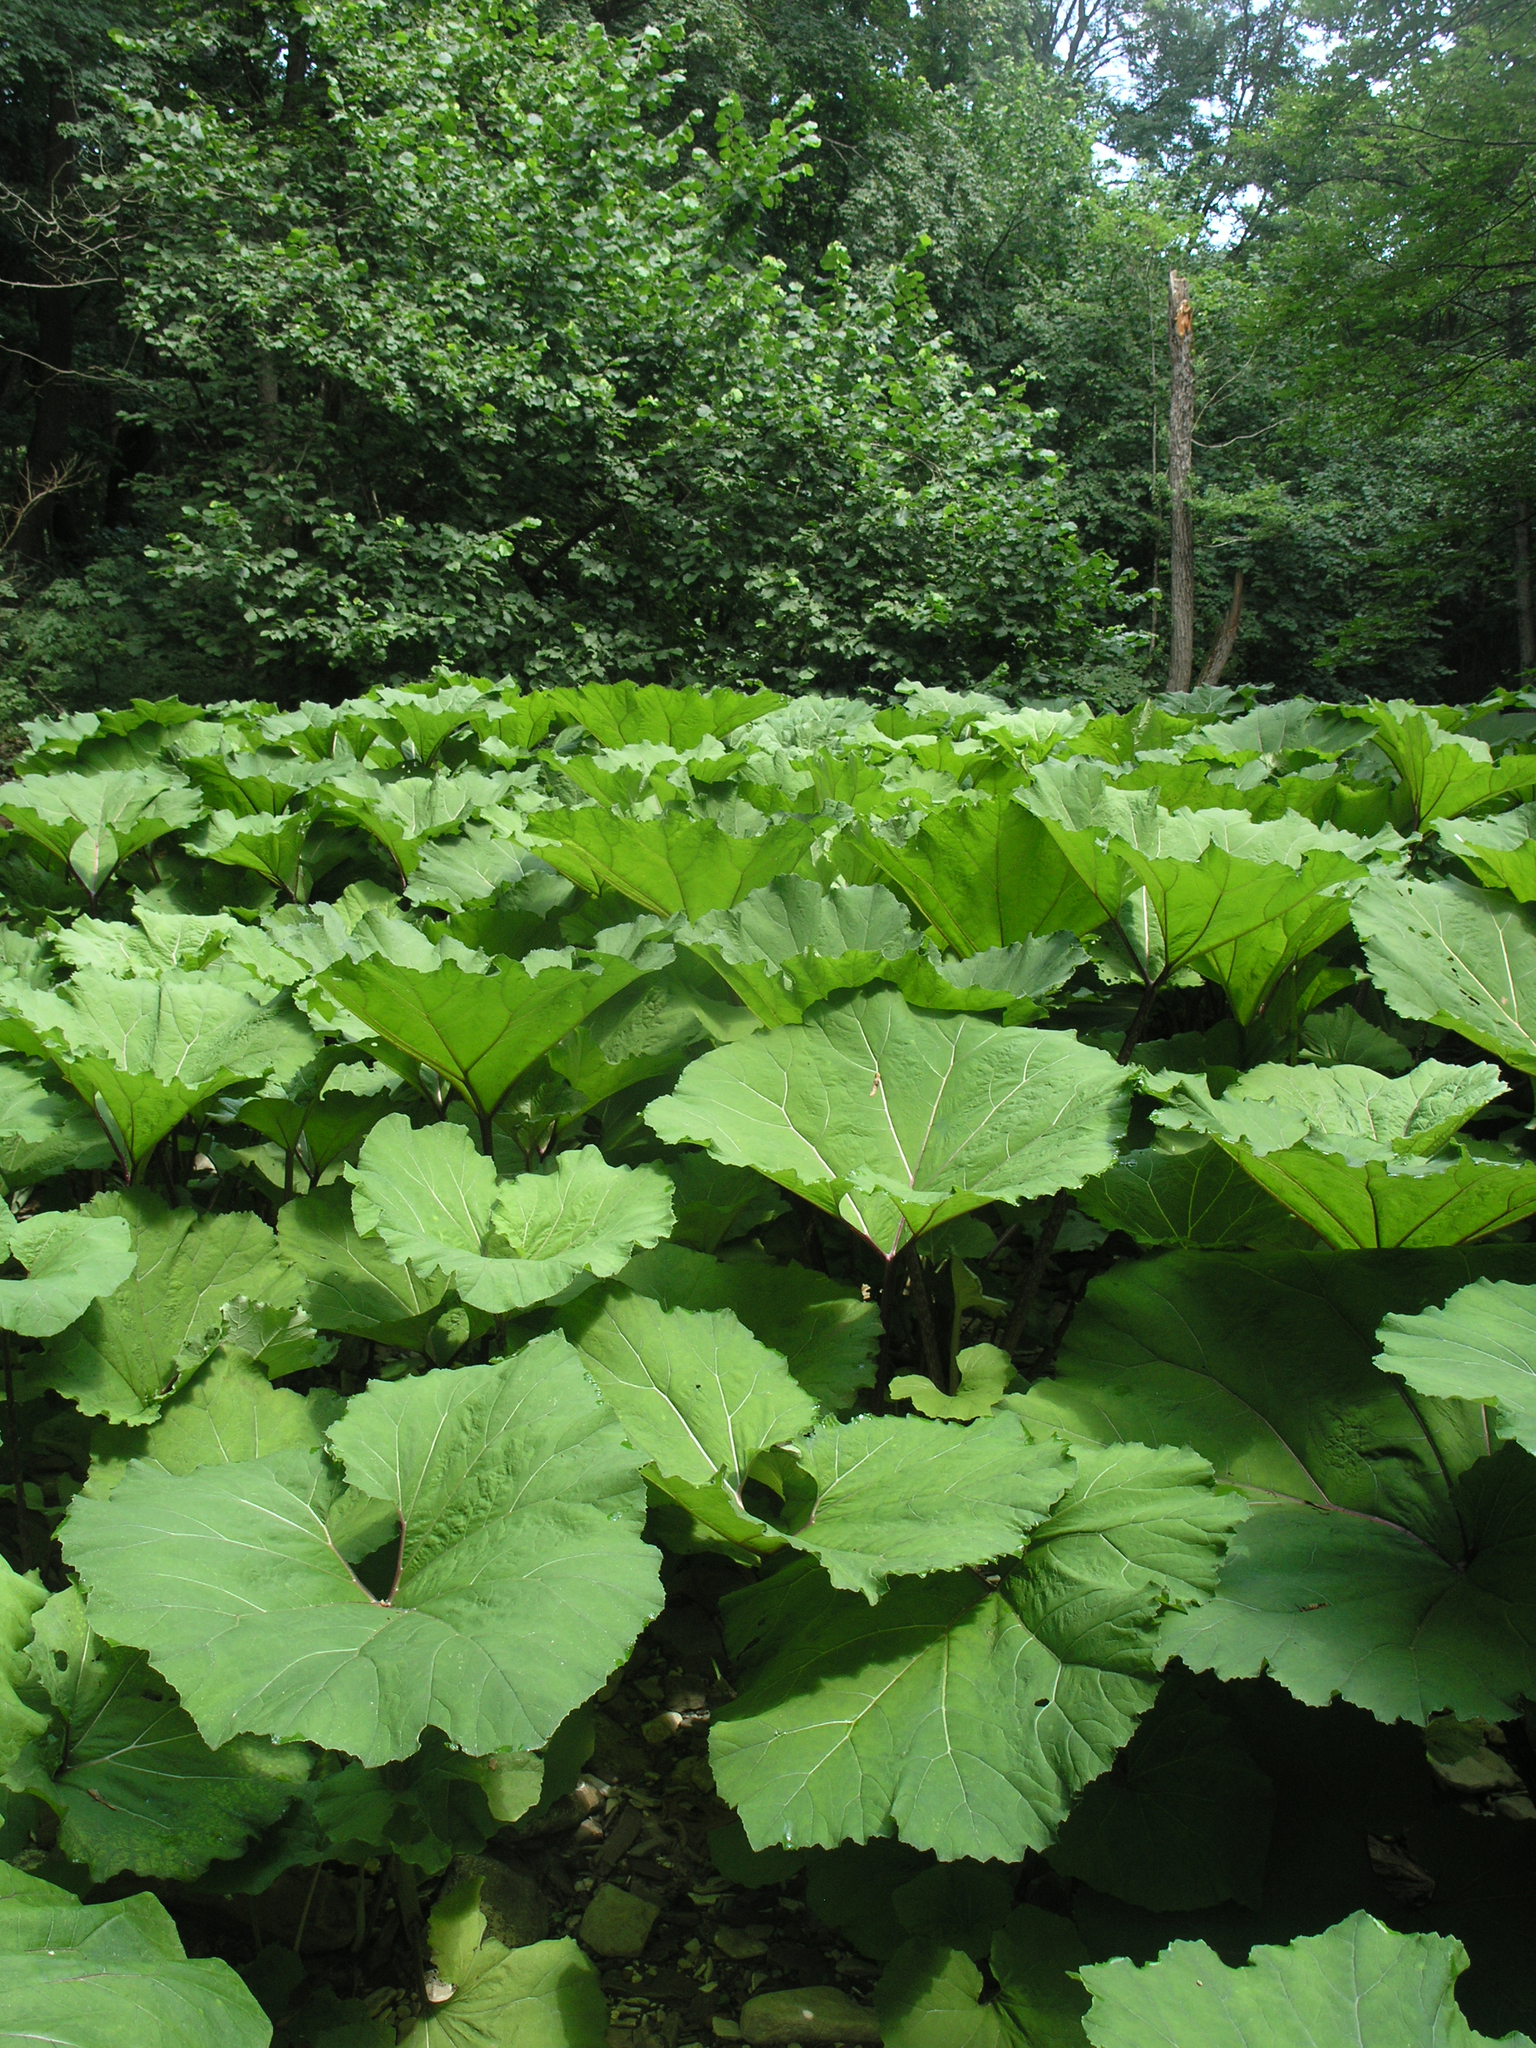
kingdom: Plantae
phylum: Tracheophyta
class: Magnoliopsida
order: Asterales
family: Asteraceae
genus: Petasites
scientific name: Petasites albus
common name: White butterbur
